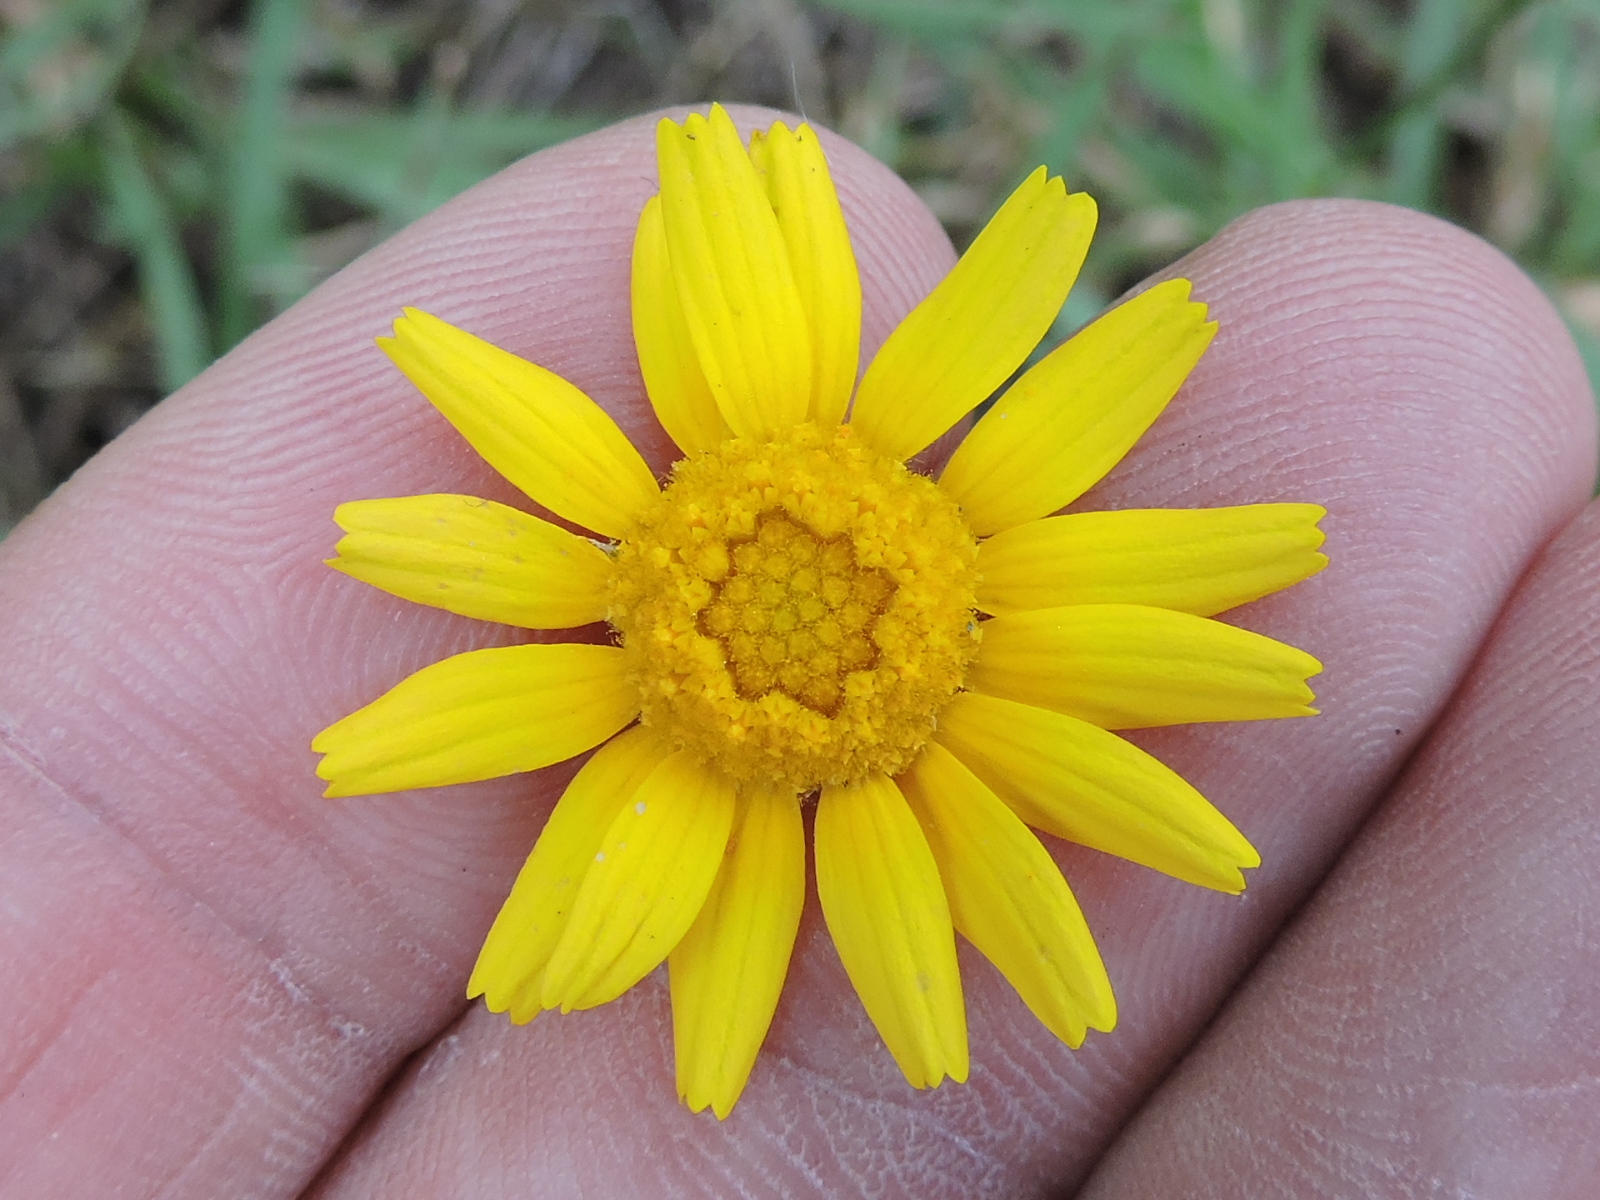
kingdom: Plantae
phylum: Tracheophyta
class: Magnoliopsida
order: Asterales
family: Asteraceae
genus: Tetraneuris
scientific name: Tetraneuris scaposa
